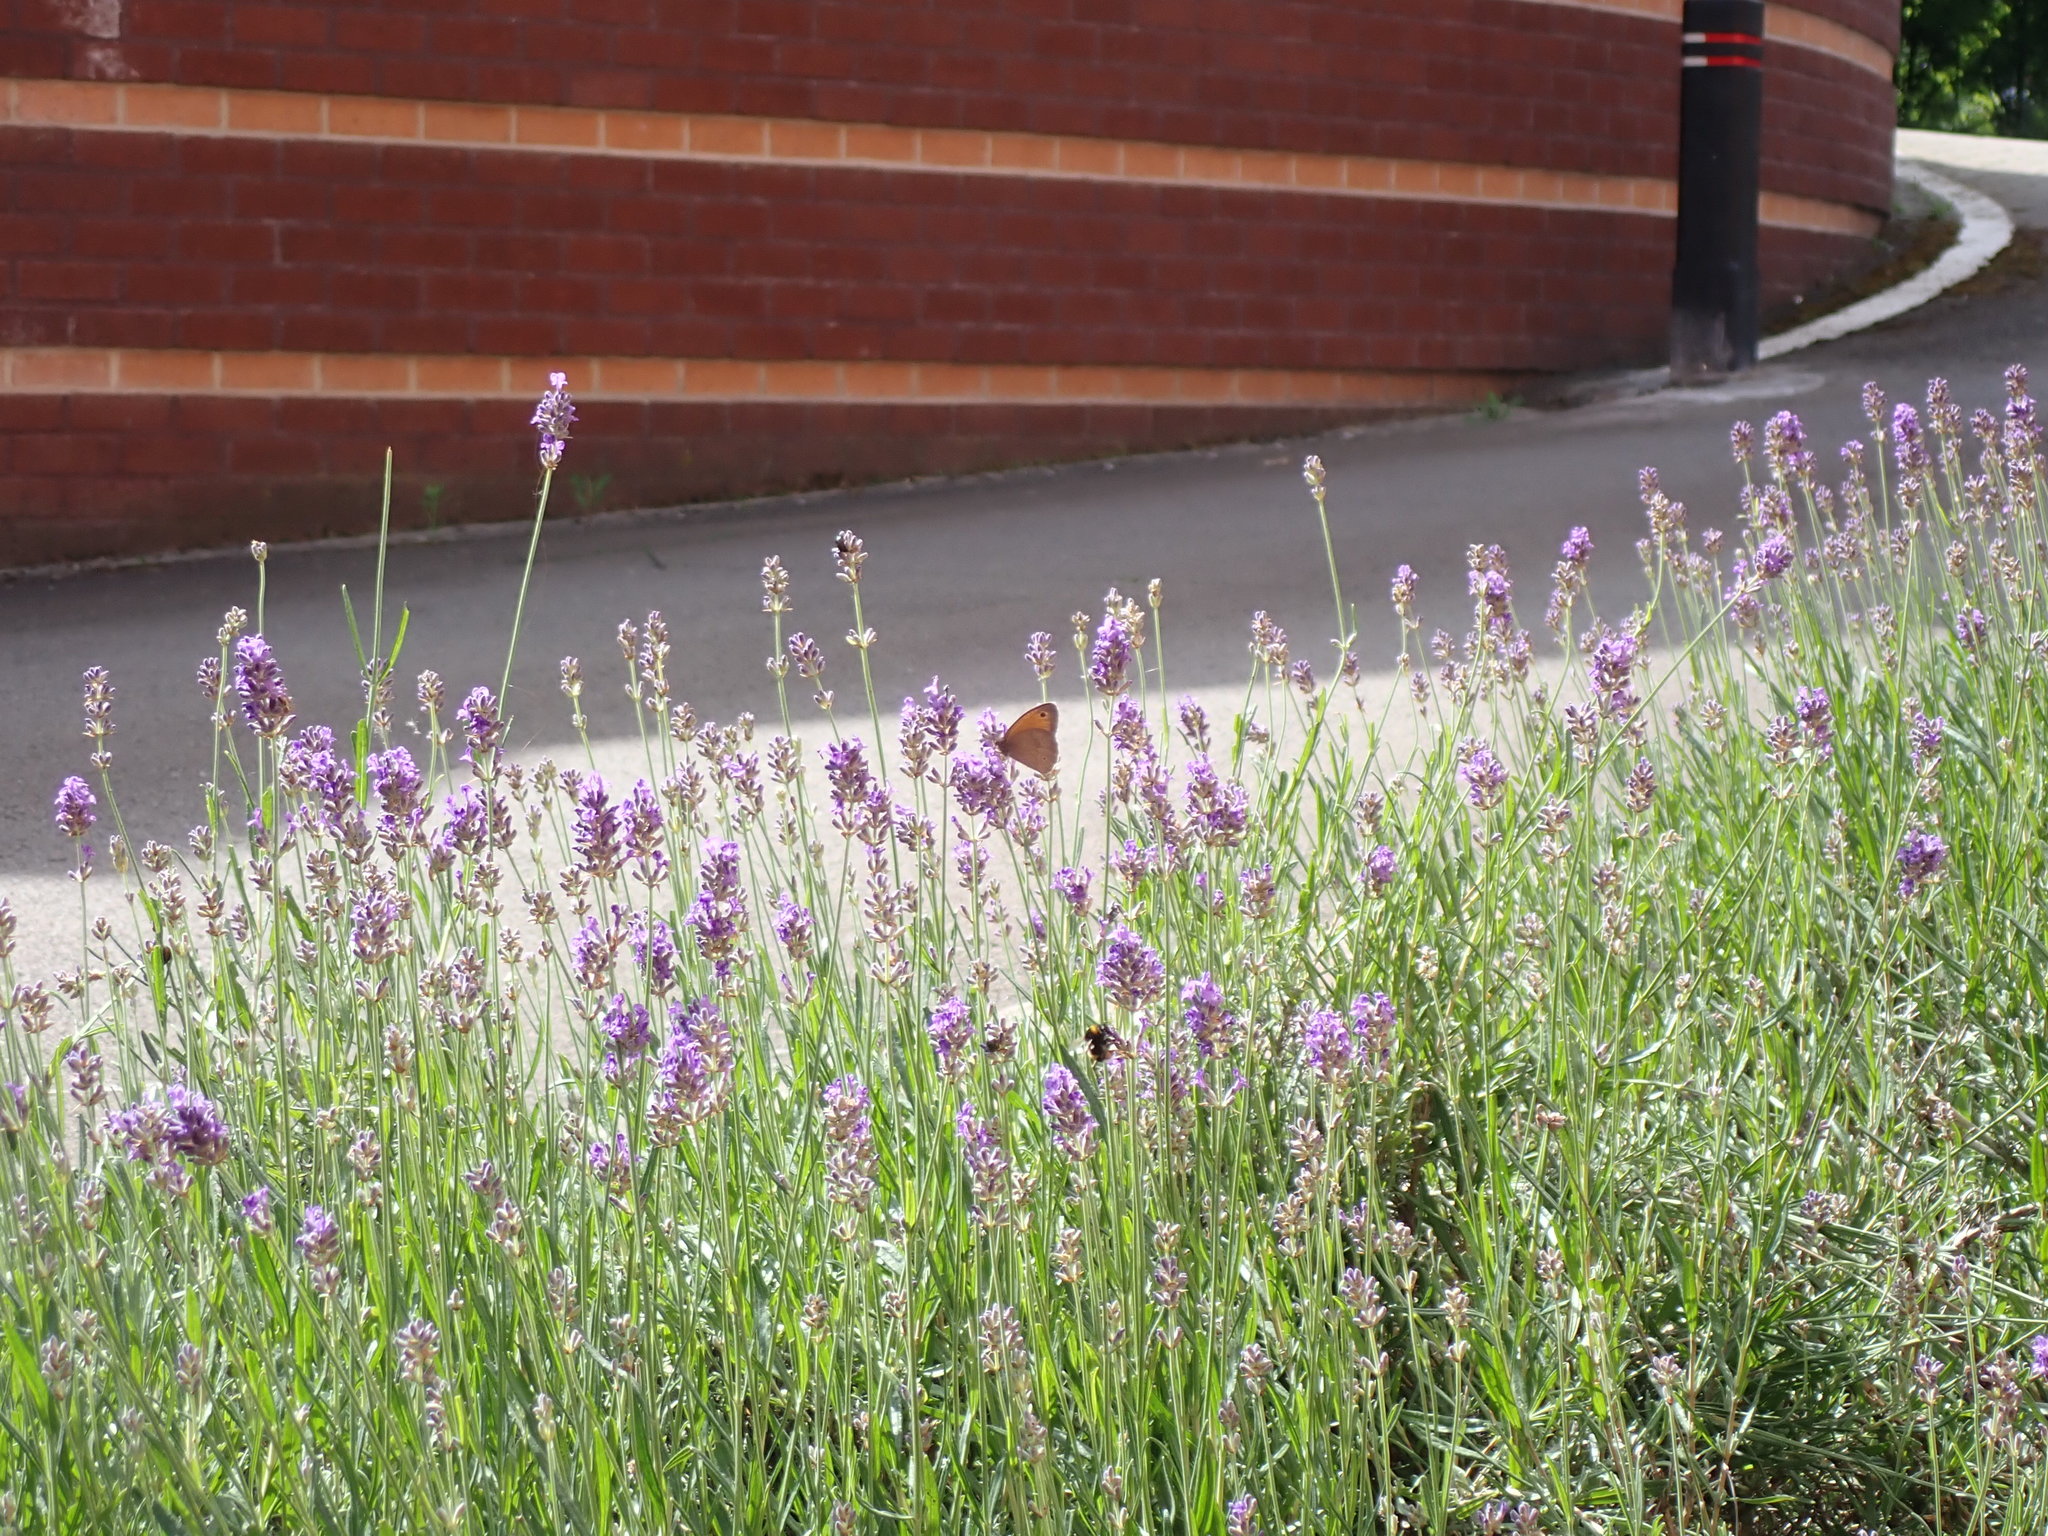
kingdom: Animalia
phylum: Arthropoda
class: Insecta
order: Lepidoptera
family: Nymphalidae
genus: Maniola
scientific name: Maniola jurtina
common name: Meadow brown
